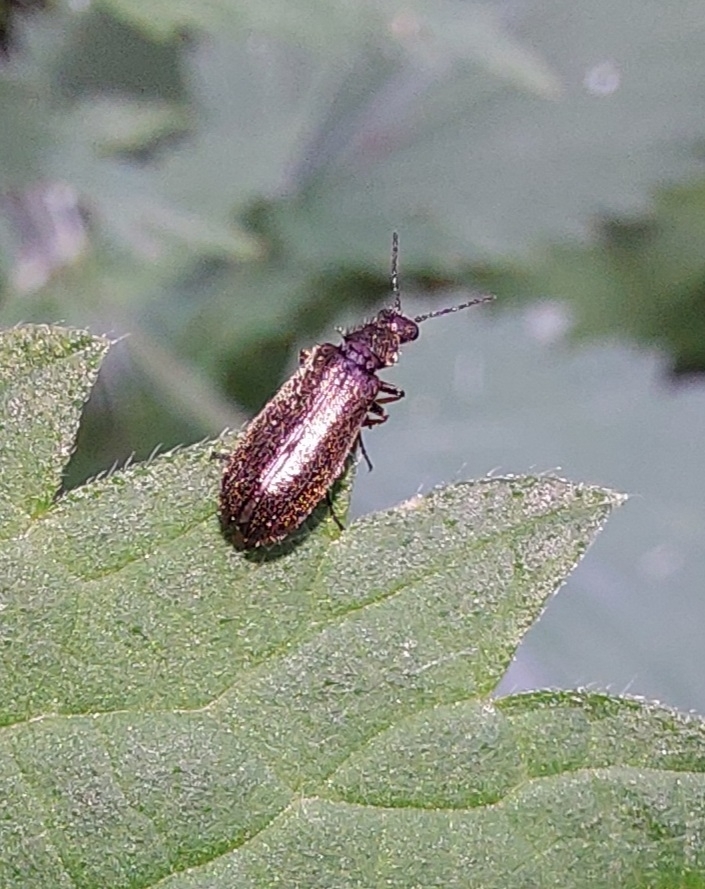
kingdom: Animalia
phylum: Arthropoda
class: Insecta
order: Coleoptera
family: Tenebrionidae
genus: Lagria
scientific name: Lagria hirta
